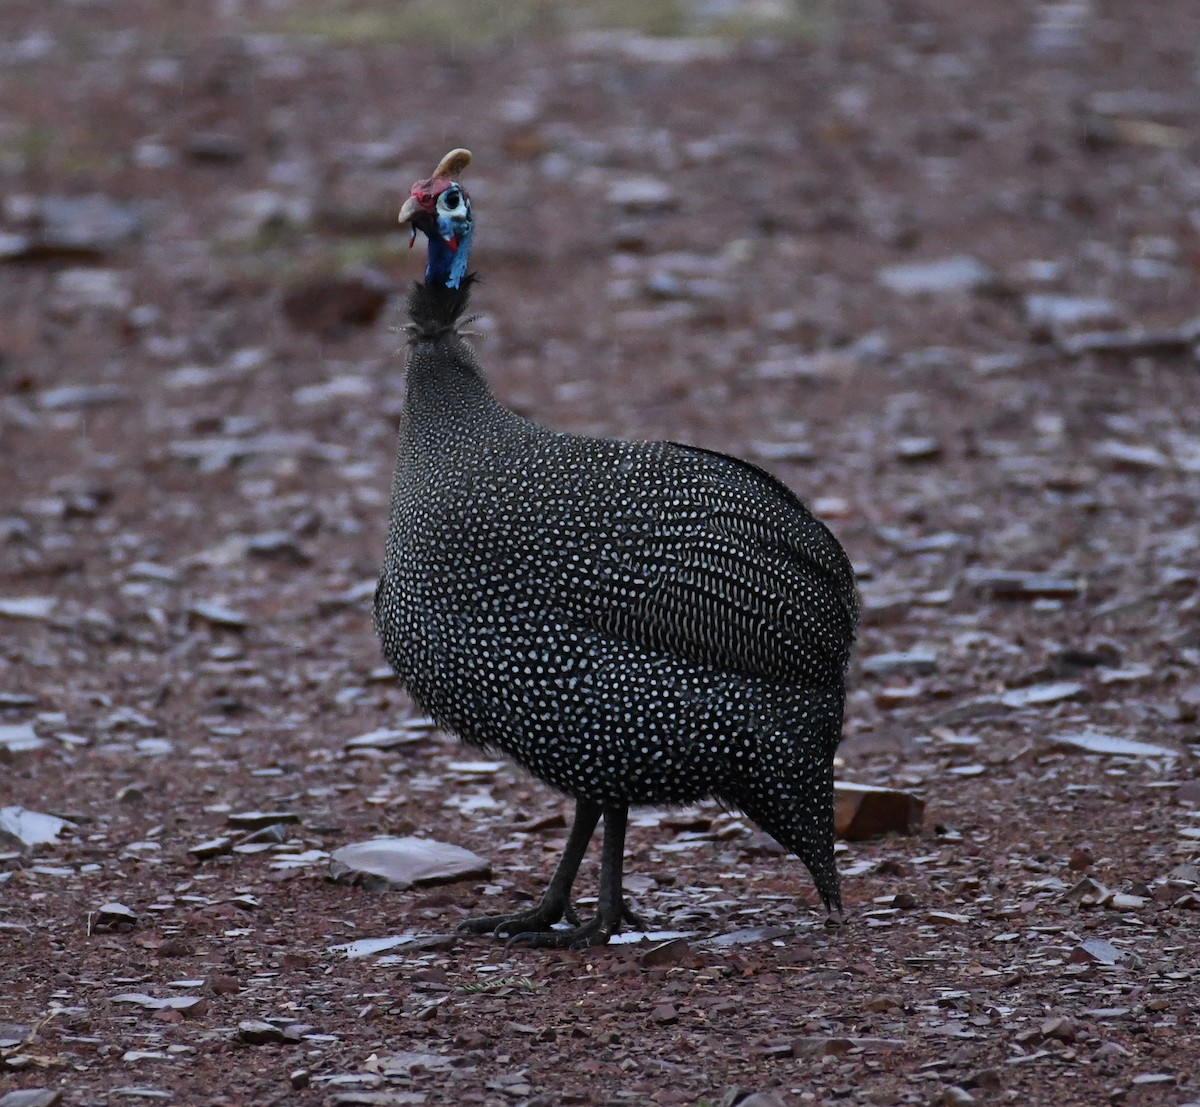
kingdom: Animalia
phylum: Chordata
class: Aves
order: Galliformes
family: Numididae
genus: Numida
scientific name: Numida meleagris
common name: Helmeted guineafowl
